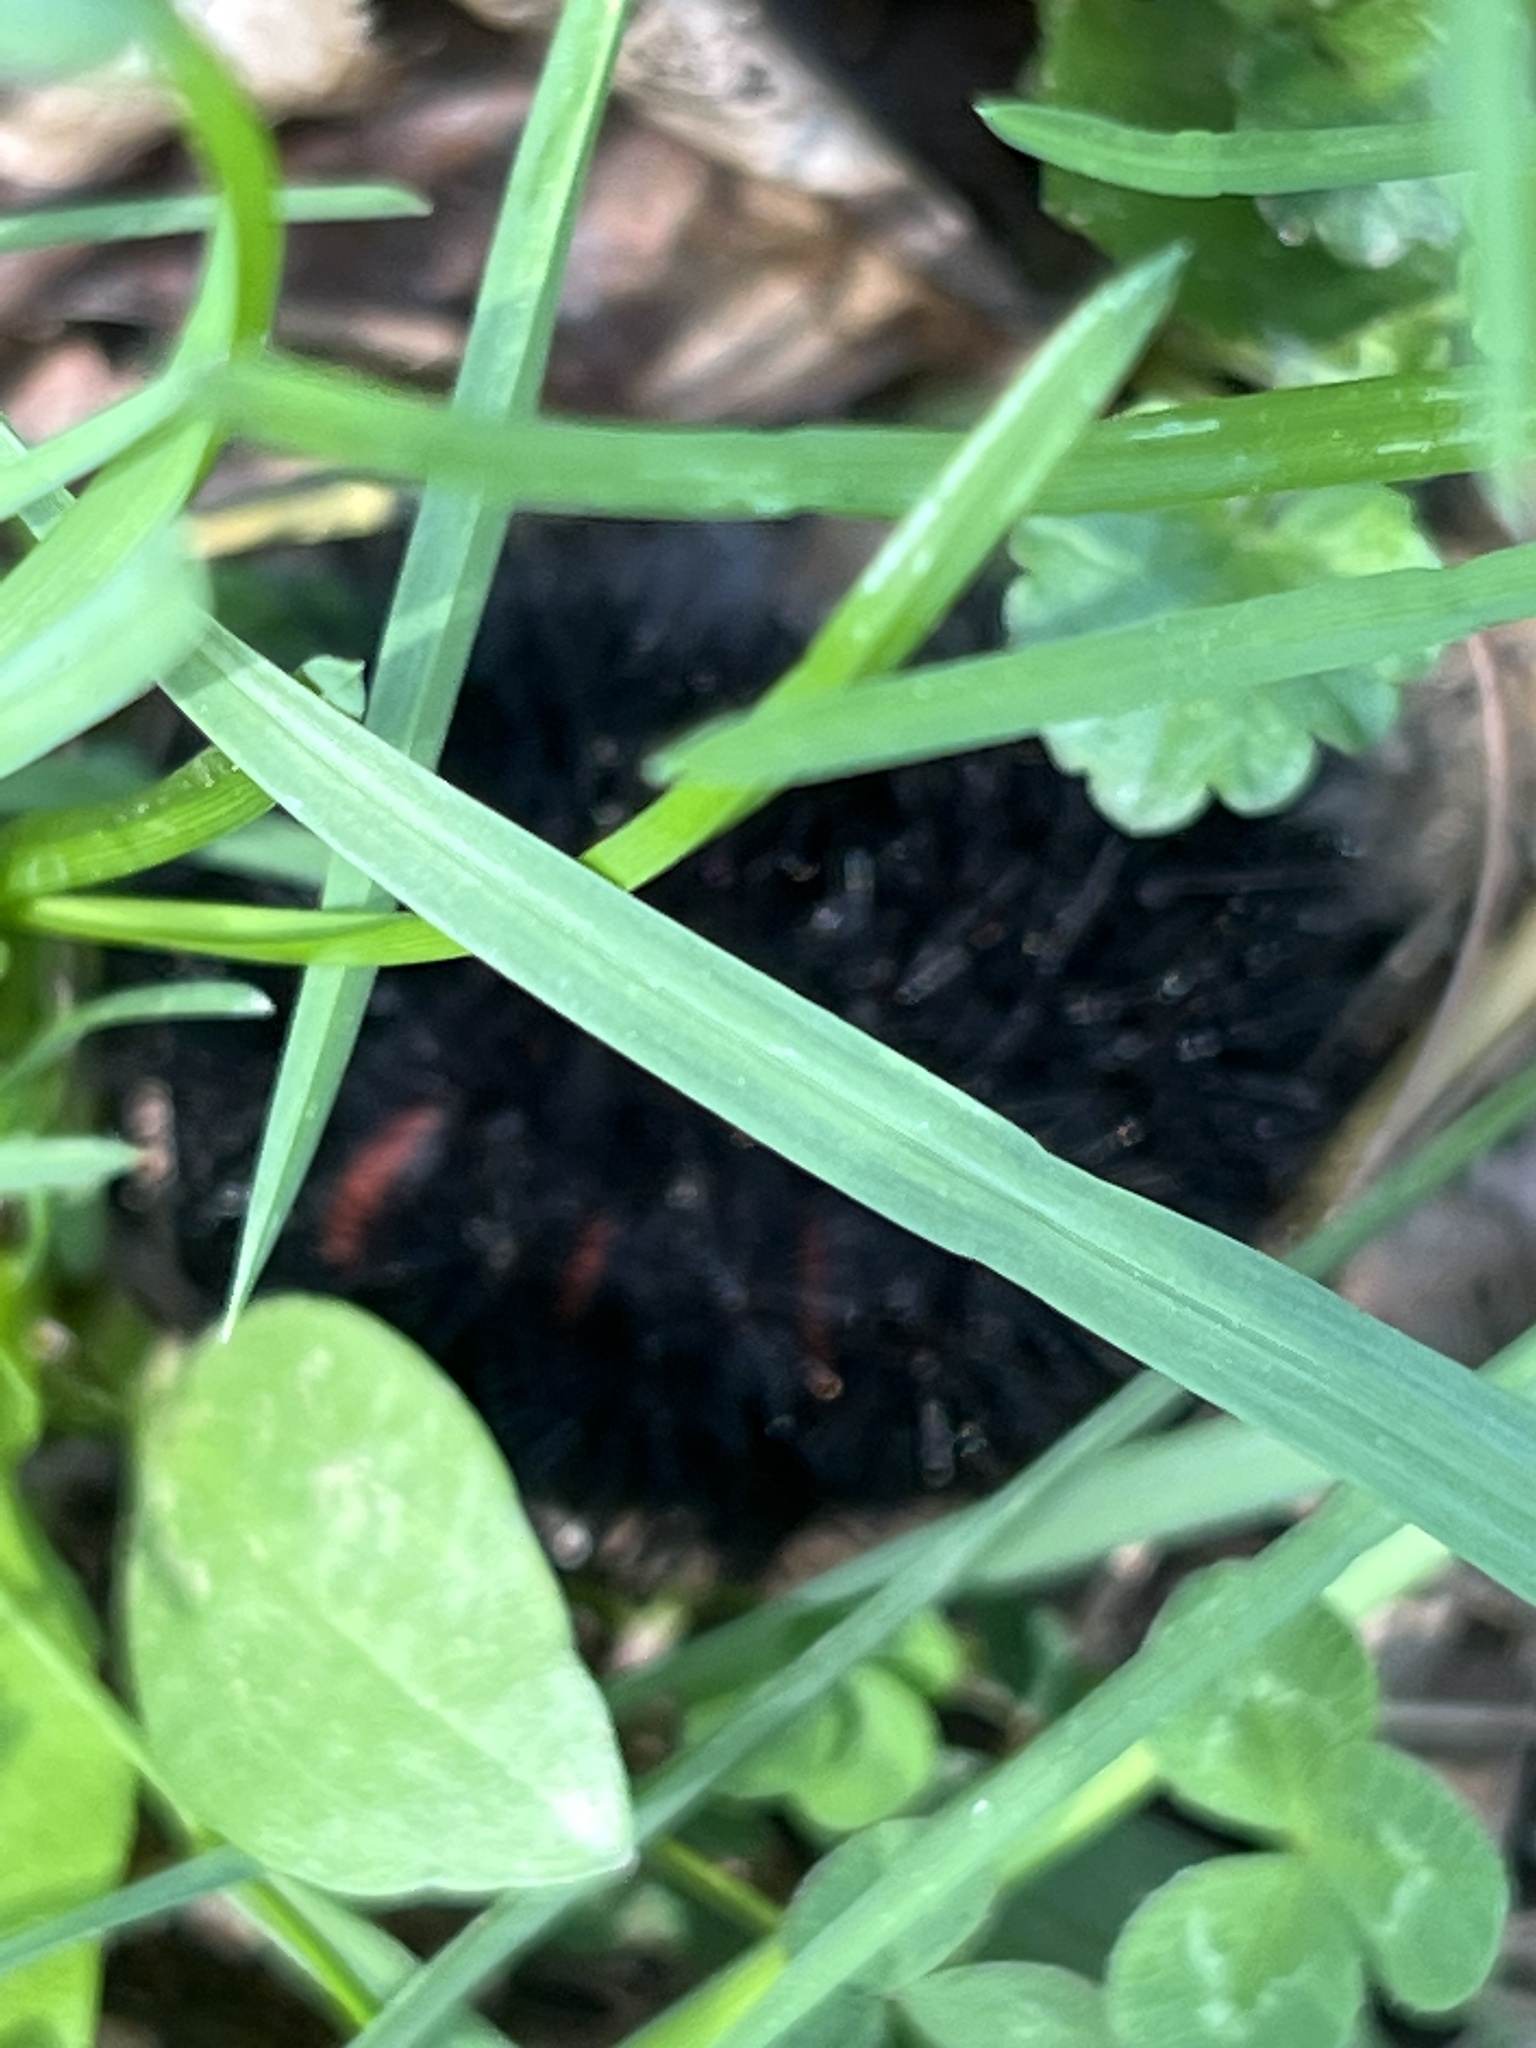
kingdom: Animalia
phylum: Arthropoda
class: Insecta
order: Lepidoptera
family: Erebidae
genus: Hypercompe
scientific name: Hypercompe scribonia
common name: Giant leopard moth
